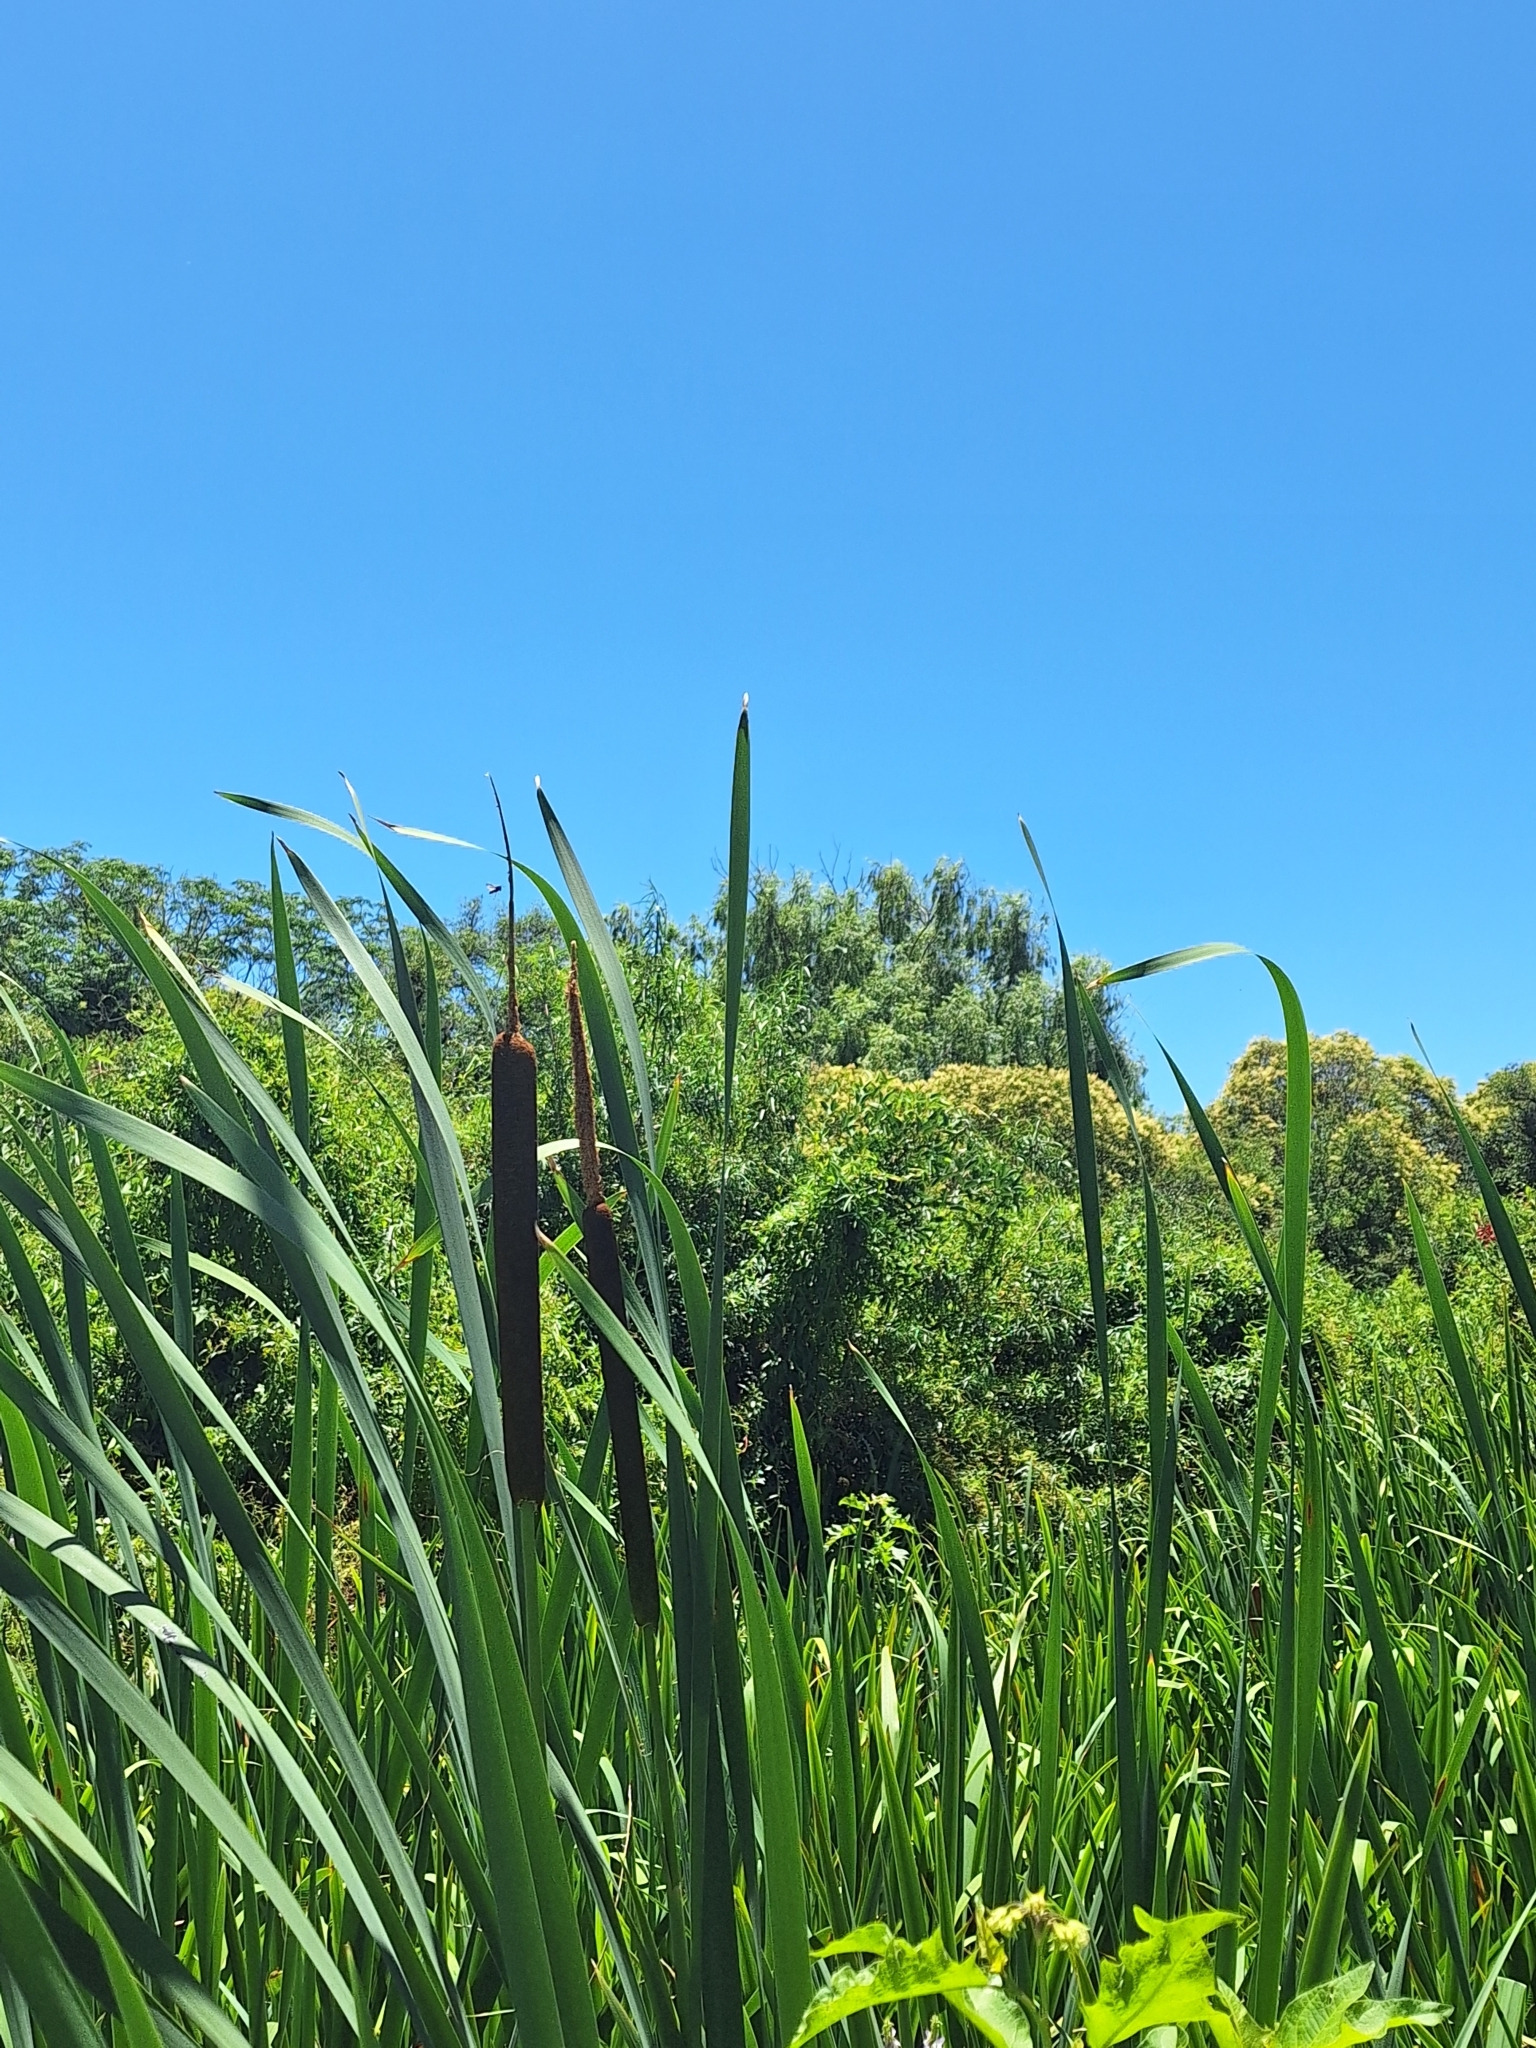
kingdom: Plantae
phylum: Tracheophyta
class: Liliopsida
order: Poales
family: Typhaceae
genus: Typha
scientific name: Typha latifolia
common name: Broadleaf cattail
